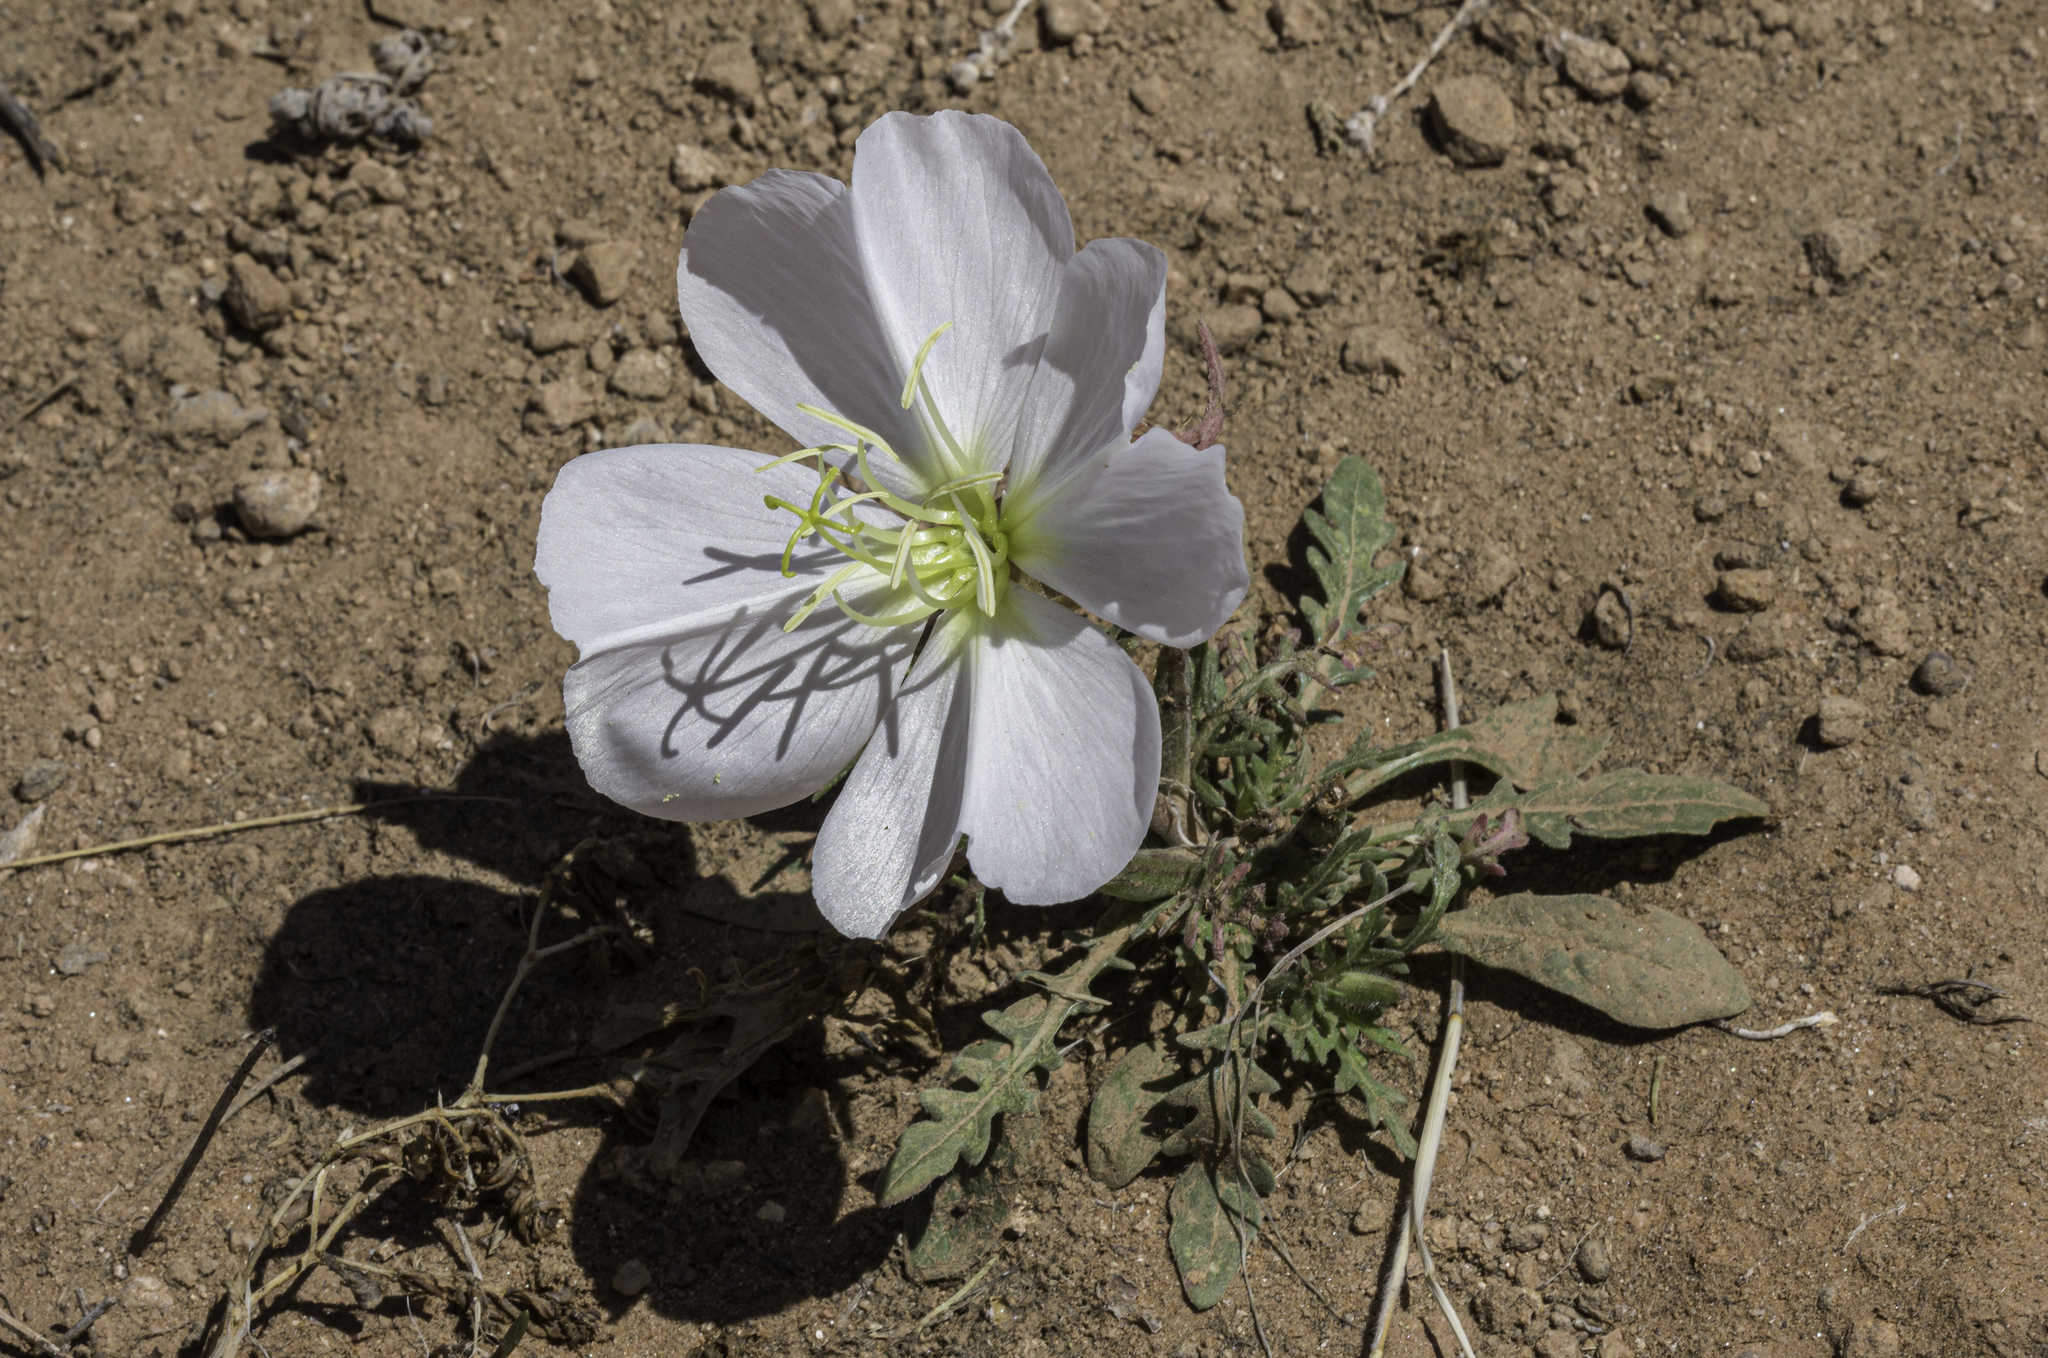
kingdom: Plantae
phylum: Tracheophyta
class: Magnoliopsida
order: Myrtales
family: Onagraceae
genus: Oenothera
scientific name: Oenothera albicaulis
